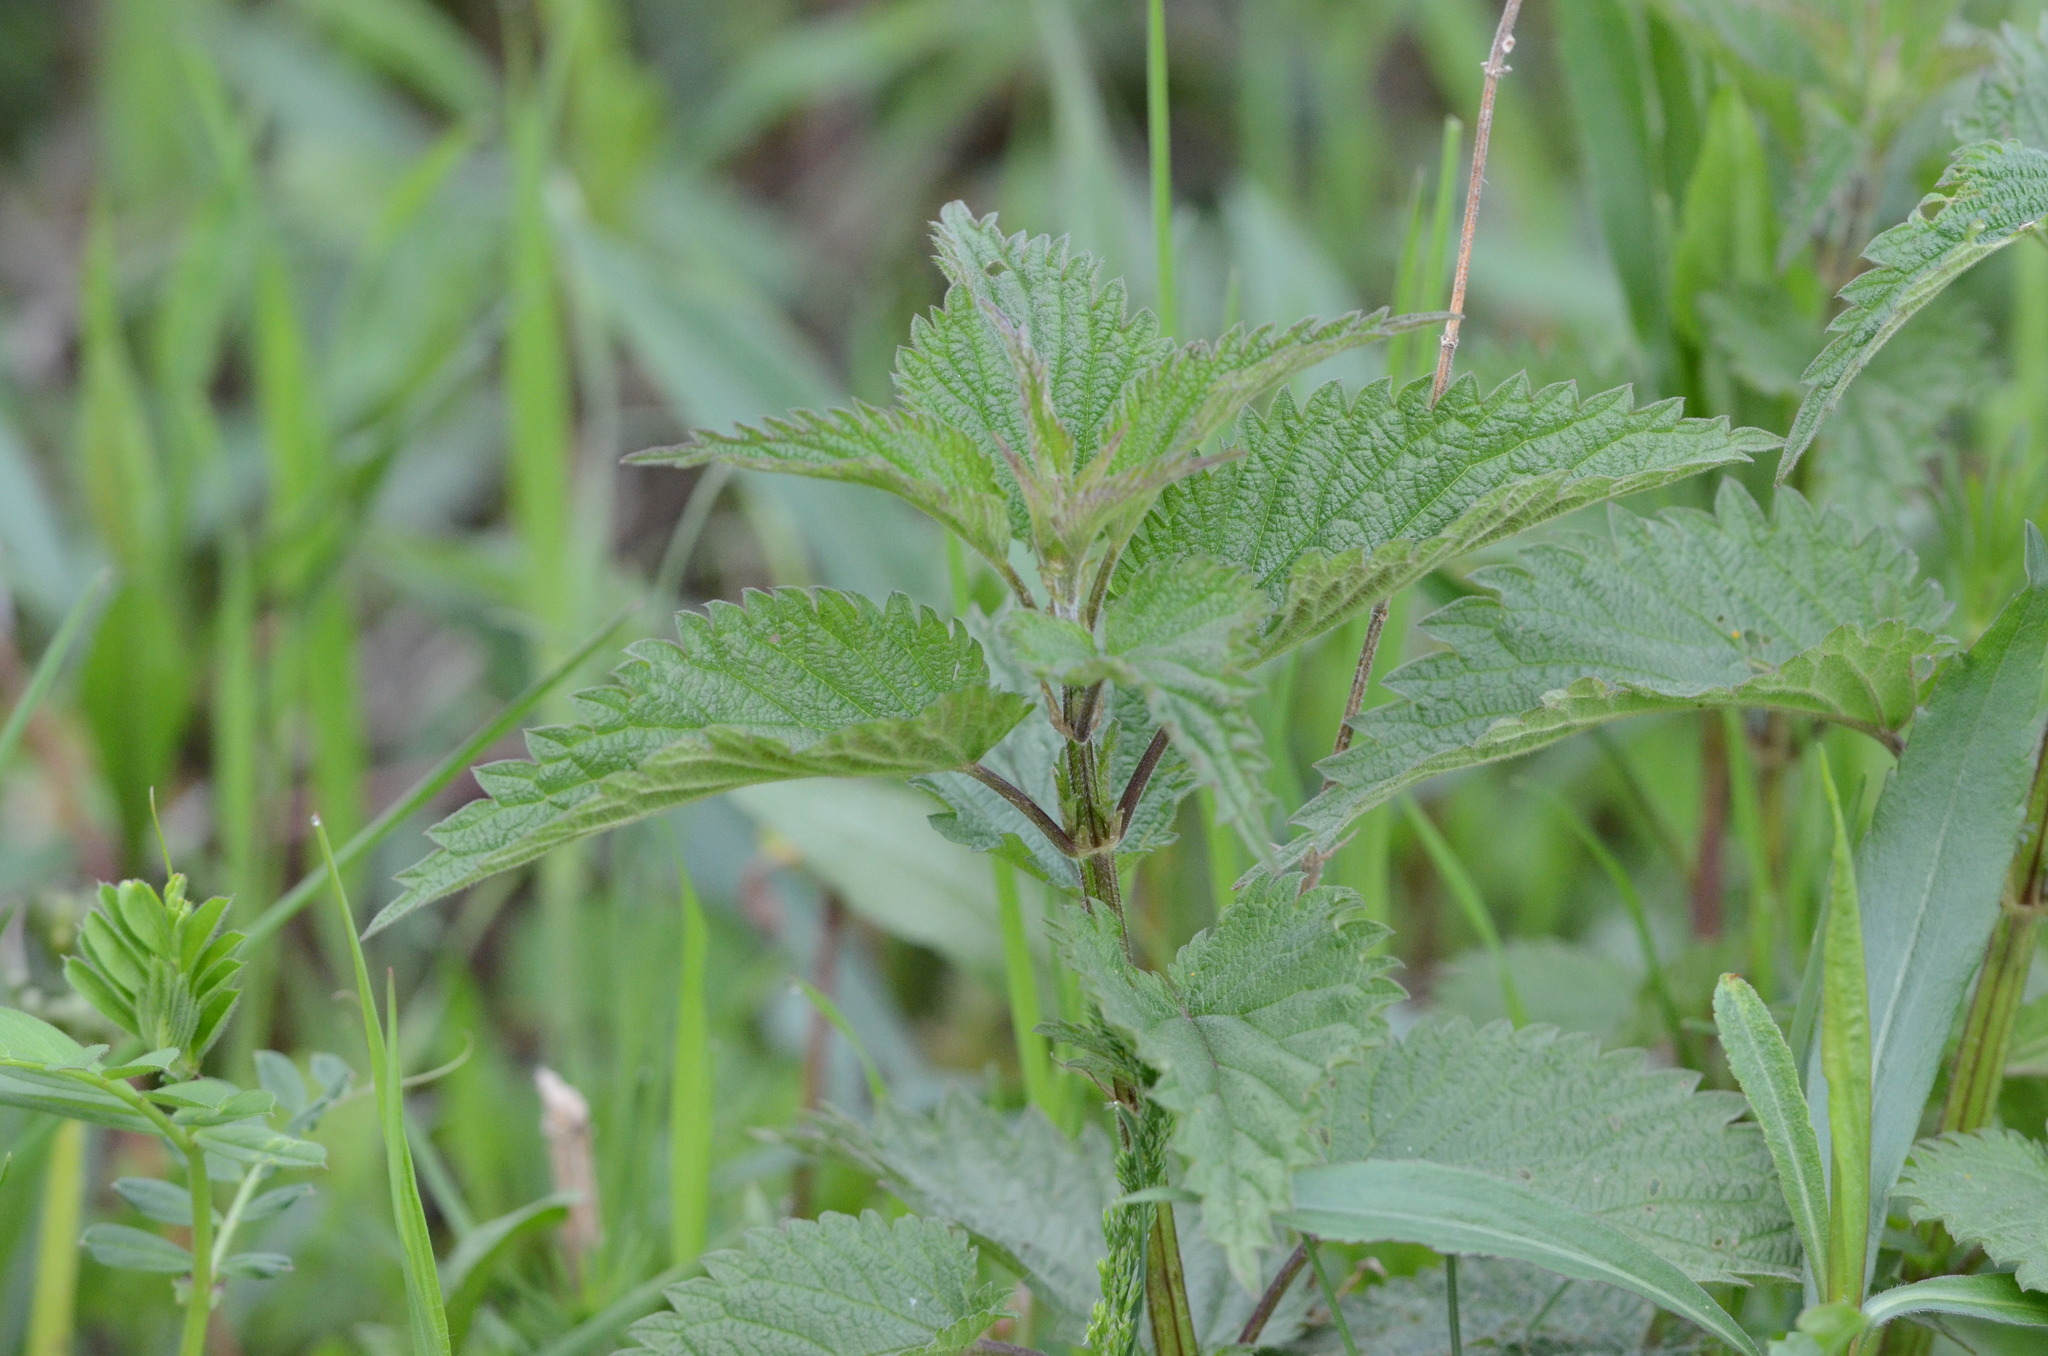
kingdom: Plantae
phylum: Tracheophyta
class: Magnoliopsida
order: Rosales
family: Urticaceae
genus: Urtica
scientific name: Urtica dioica
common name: Common nettle
